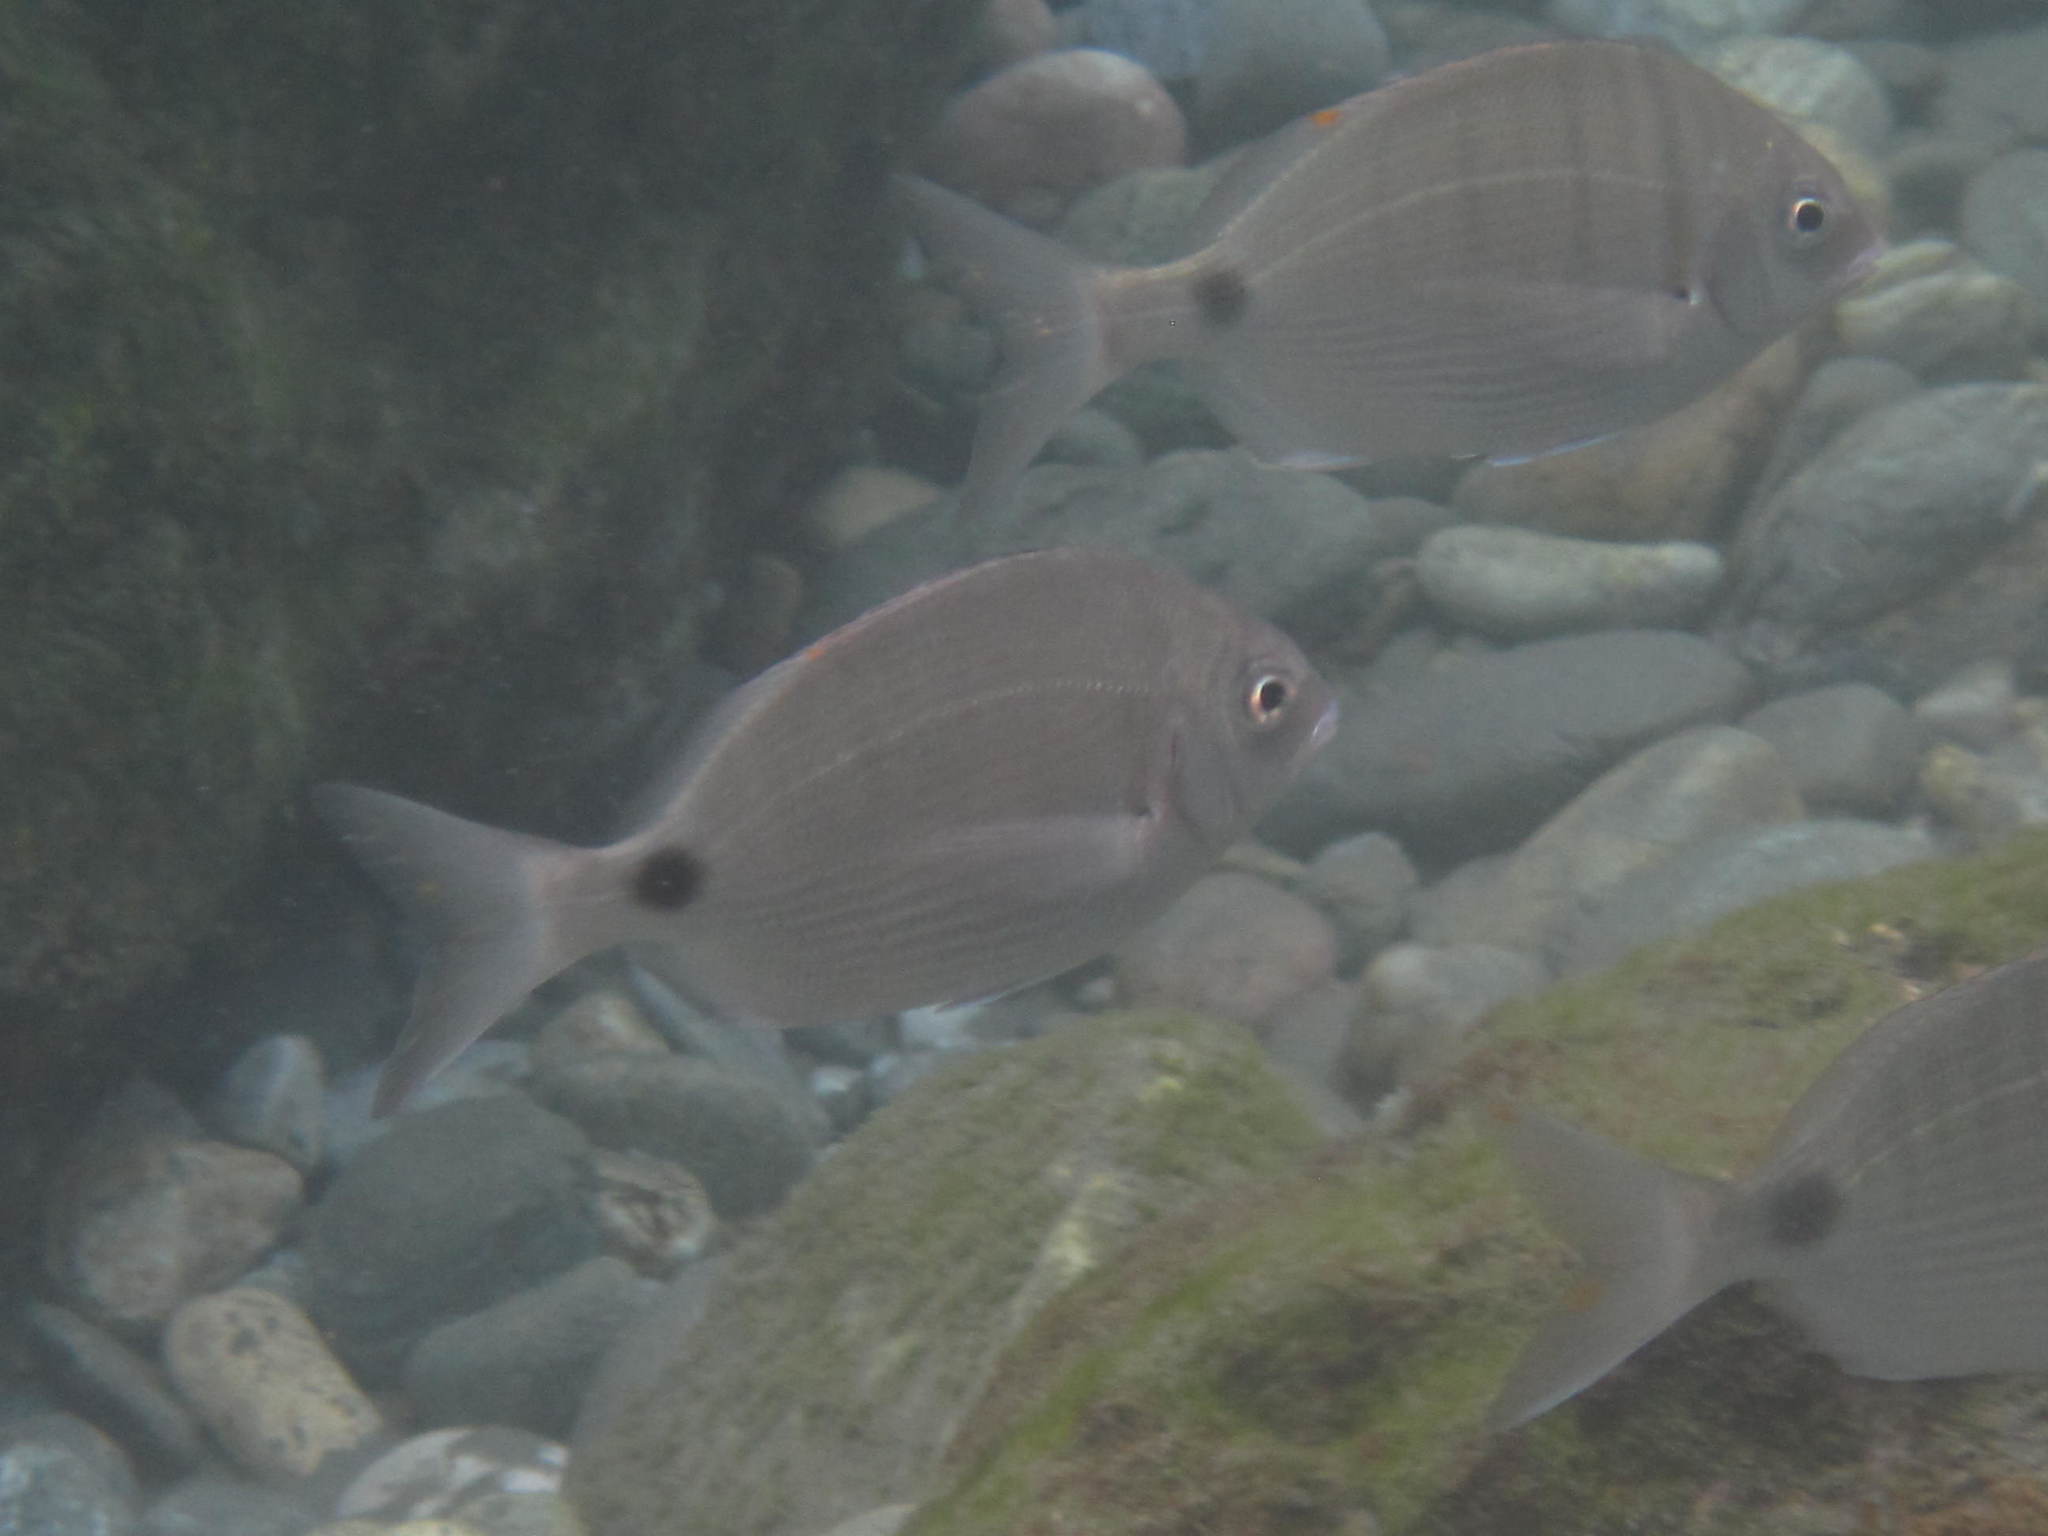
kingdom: Animalia
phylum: Chordata
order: Perciformes
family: Sparidae
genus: Diplodus
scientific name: Diplodus sargus
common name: White seabream
